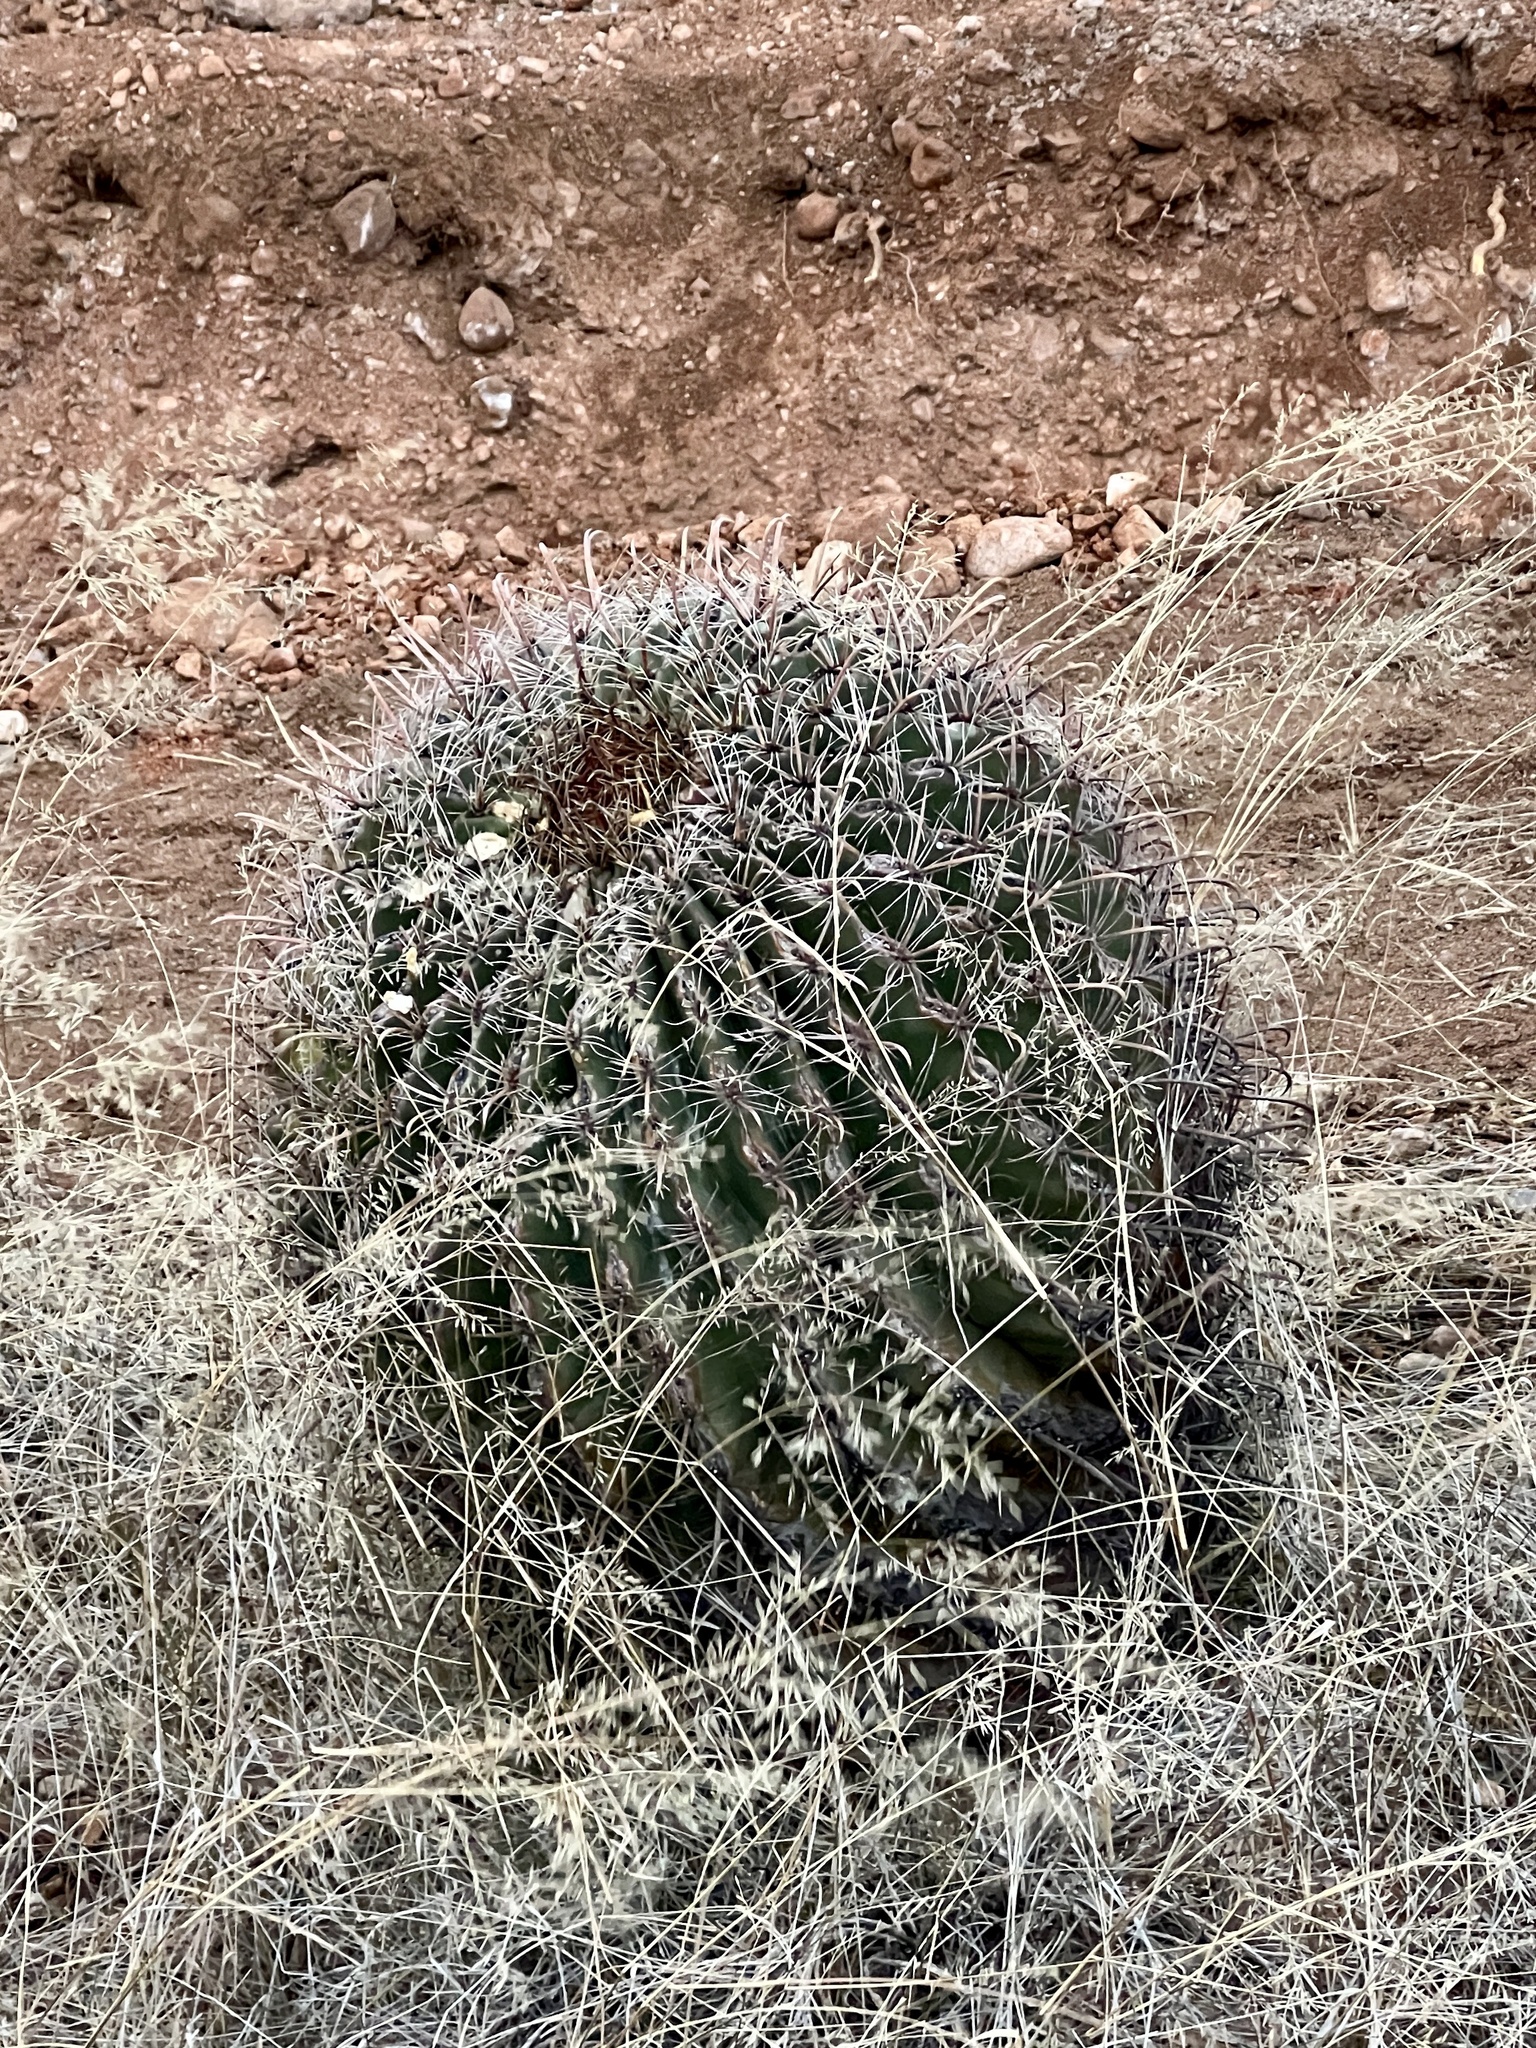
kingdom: Plantae
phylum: Tracheophyta
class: Magnoliopsida
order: Caryophyllales
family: Cactaceae
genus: Ferocactus
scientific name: Ferocactus wislizeni
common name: Candy barrel cactus
